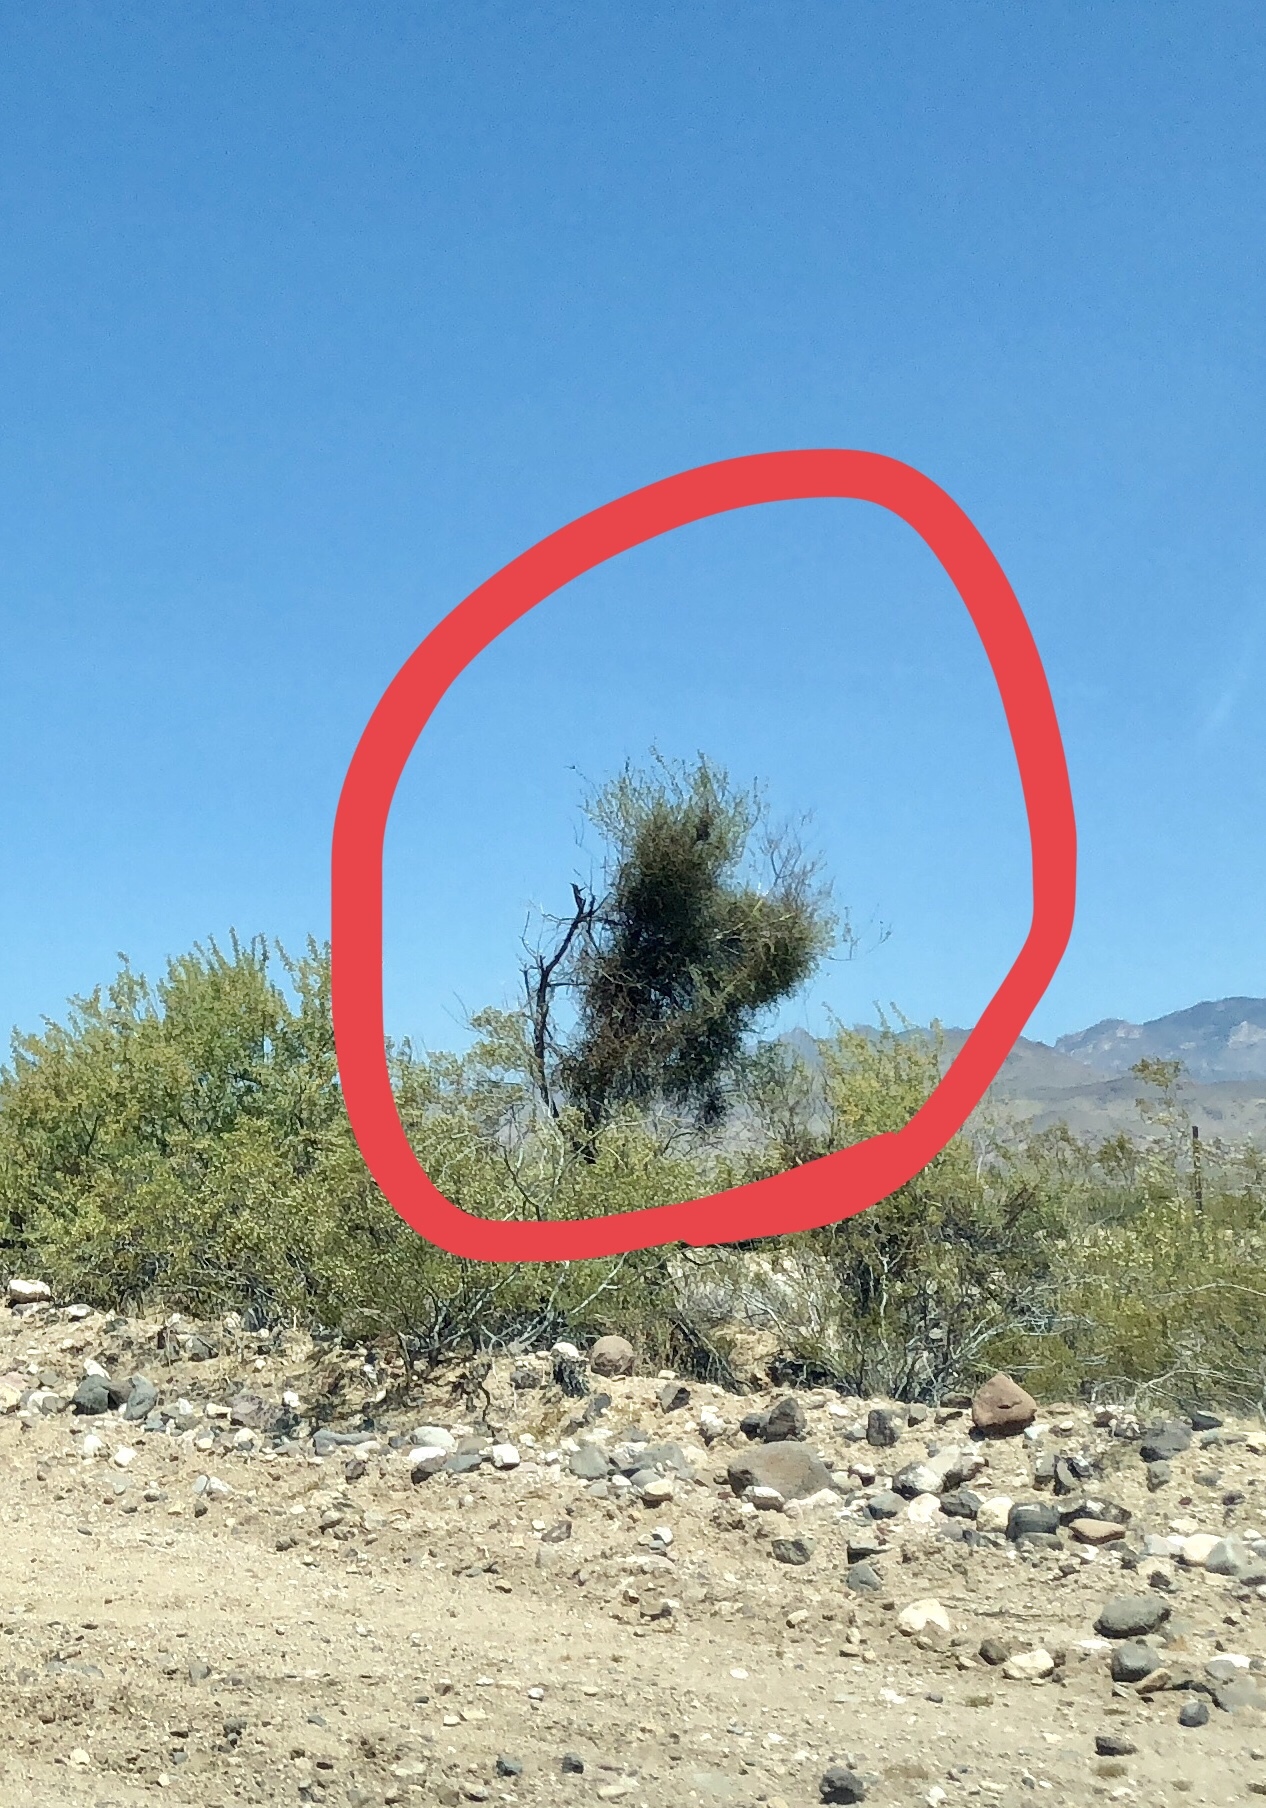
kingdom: Plantae
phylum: Tracheophyta
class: Magnoliopsida
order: Santalales
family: Viscaceae
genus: Phoradendron
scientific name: Phoradendron californicum
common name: Acacia mistletoe
